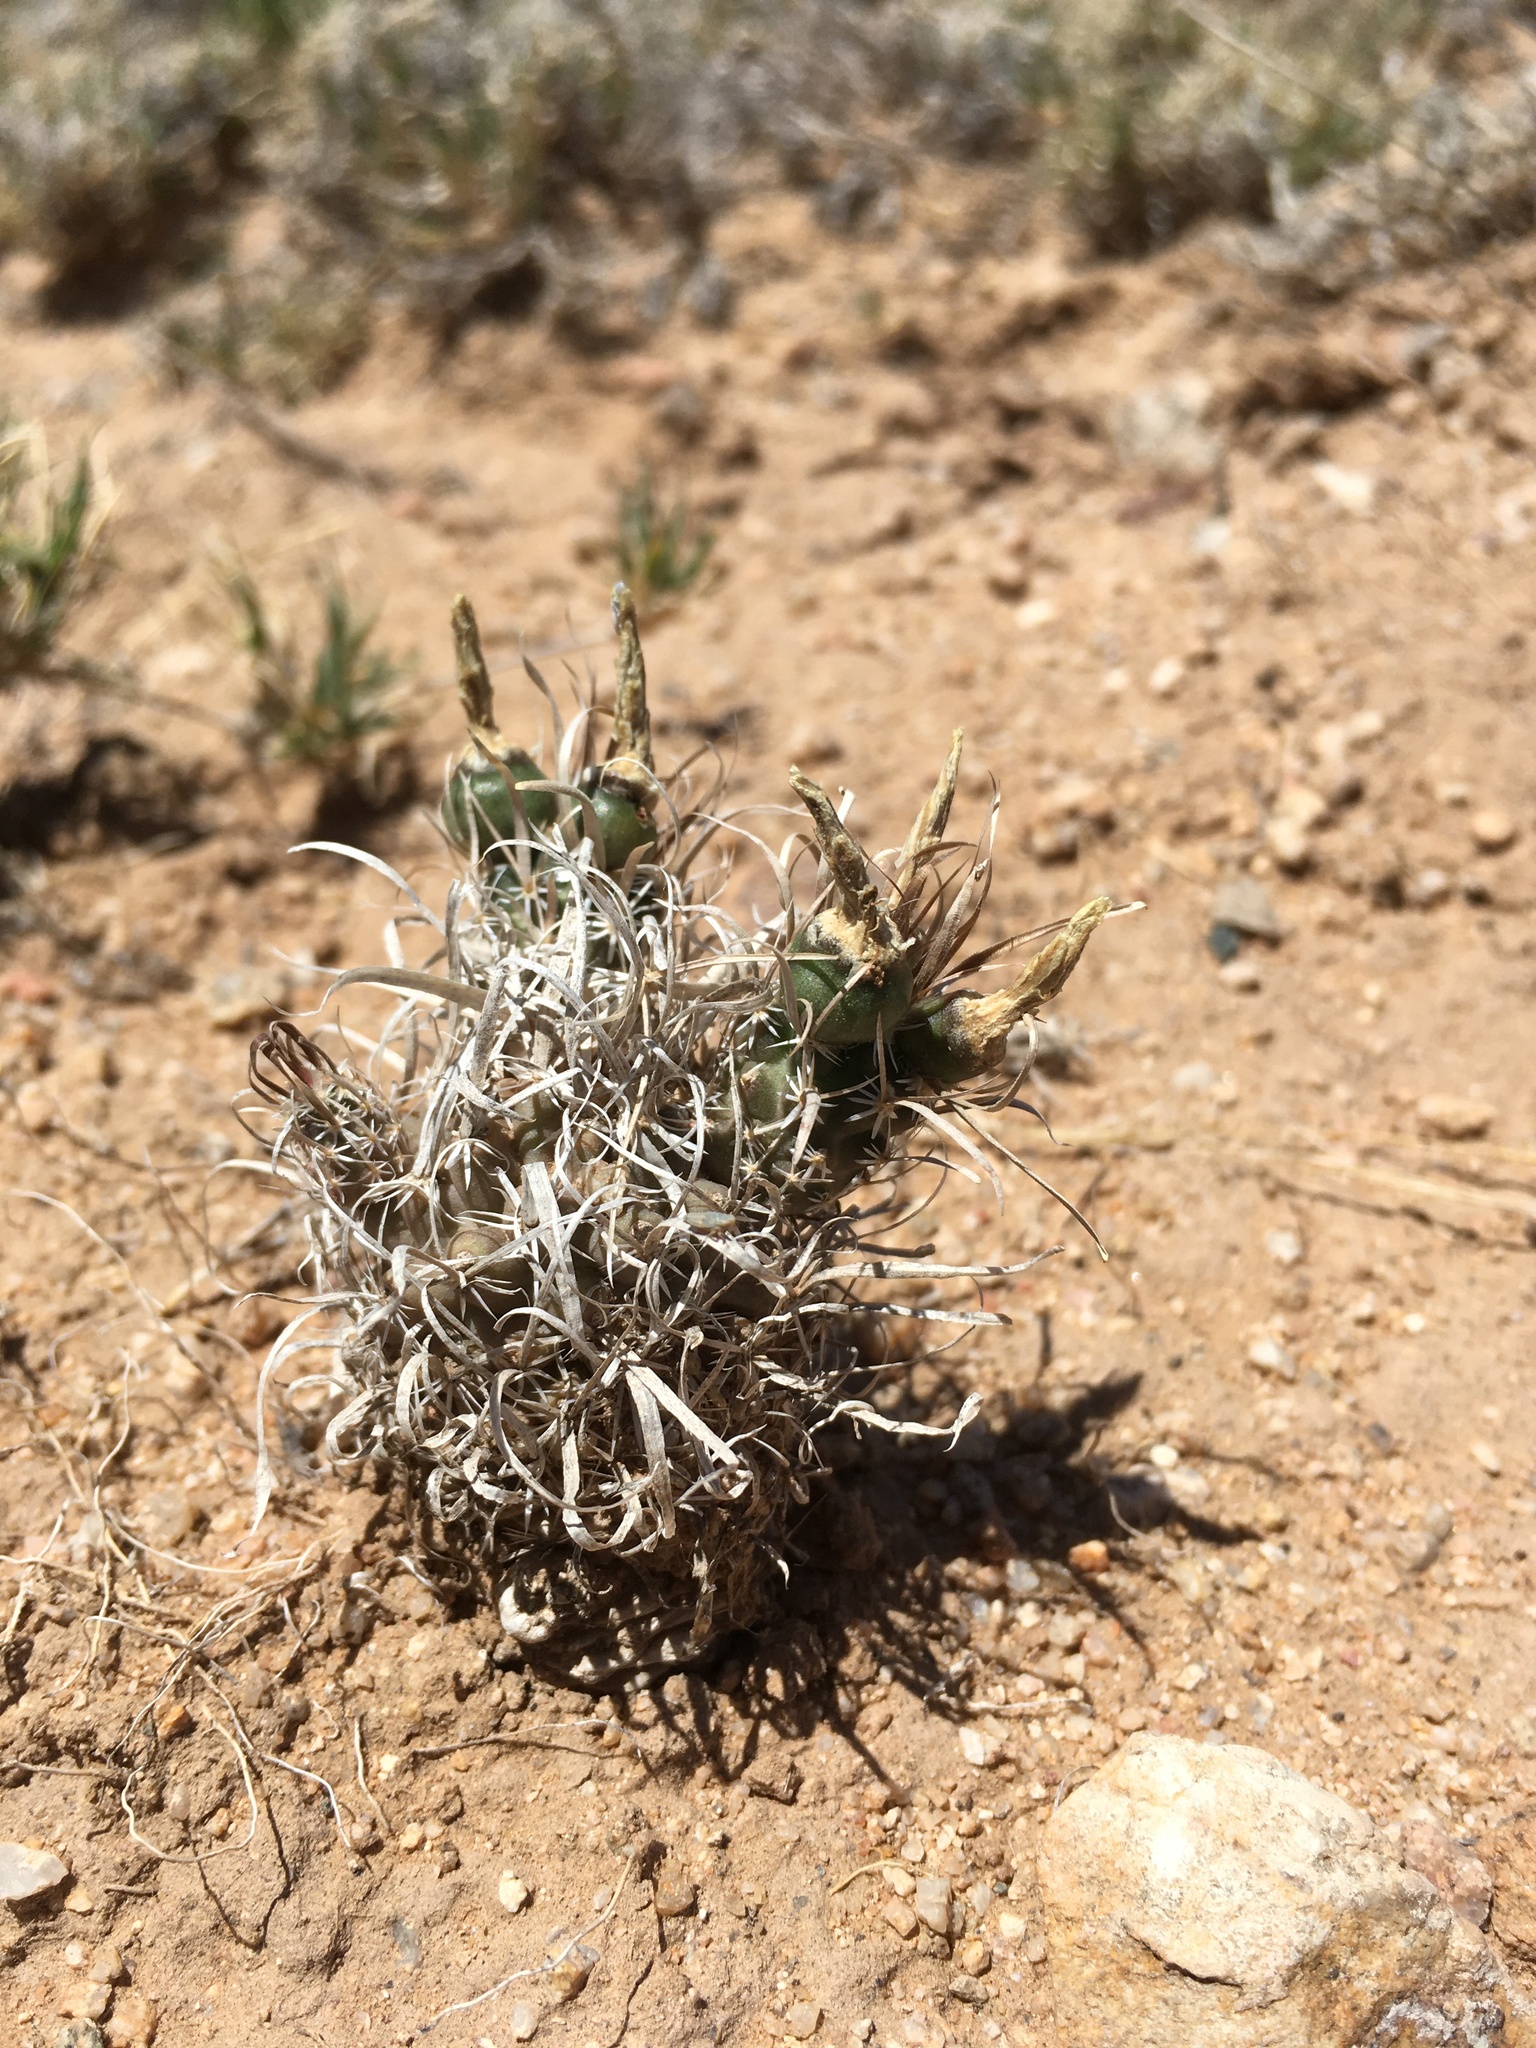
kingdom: Plantae
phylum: Tracheophyta
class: Magnoliopsida
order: Caryophyllales
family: Cactaceae
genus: Sclerocactus
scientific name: Sclerocactus papyracanthus
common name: Grama grass cactus
